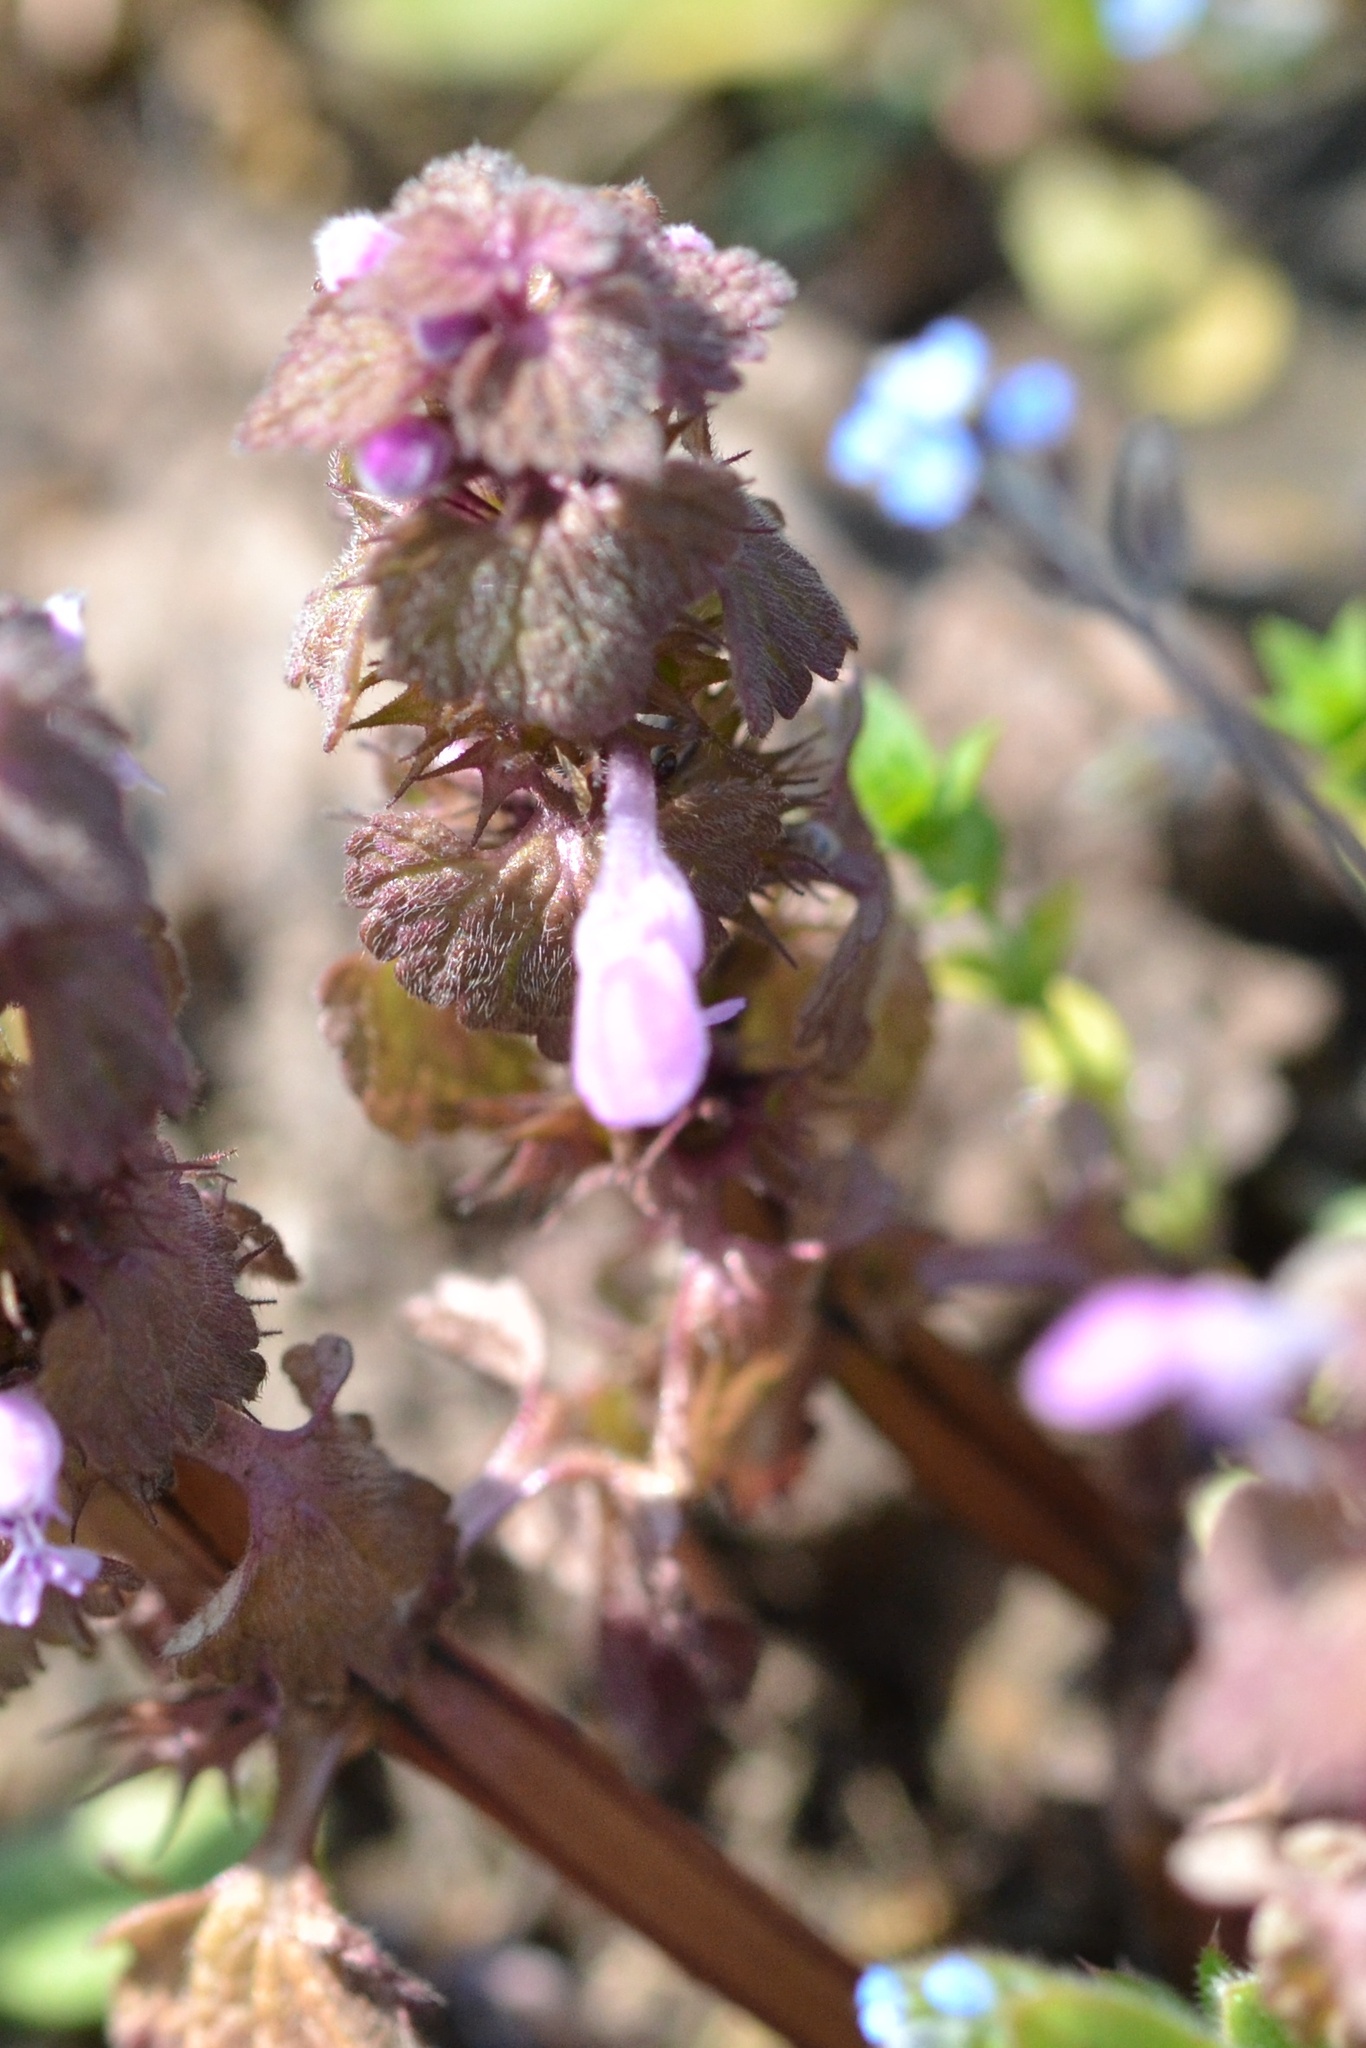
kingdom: Plantae
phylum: Tracheophyta
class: Magnoliopsida
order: Lamiales
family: Lamiaceae
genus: Lamium
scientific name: Lamium purpureum
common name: Red dead-nettle
